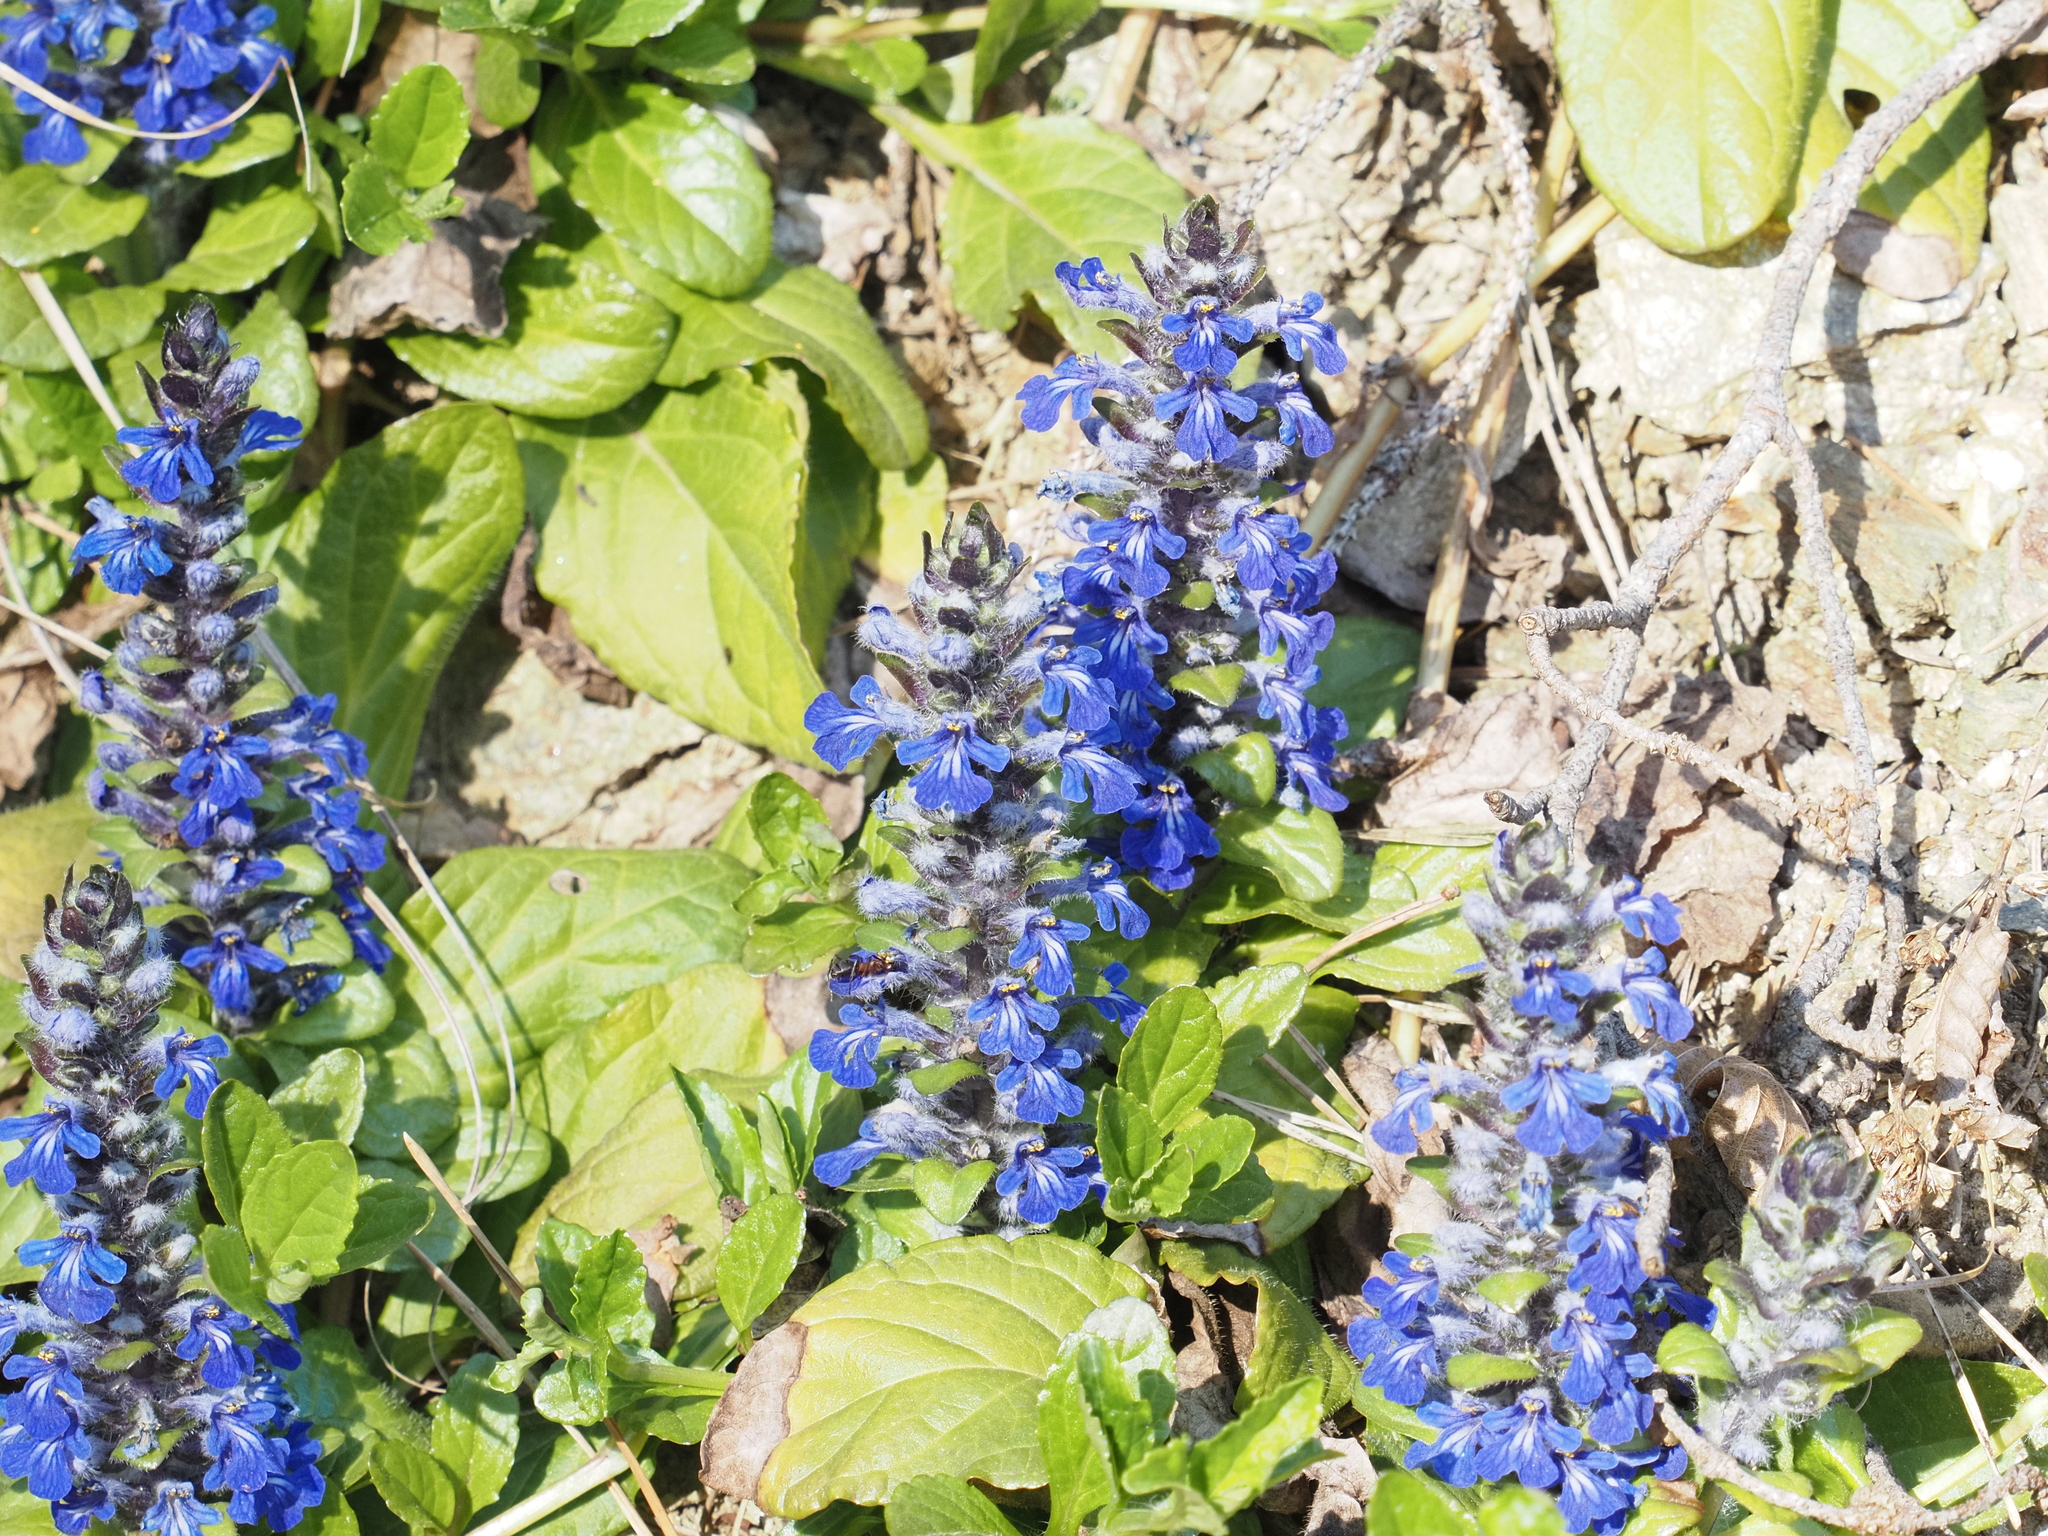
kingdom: Plantae
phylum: Tracheophyta
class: Magnoliopsida
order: Lamiales
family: Lamiaceae
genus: Ajuga
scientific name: Ajuga reptans
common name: Bugle
